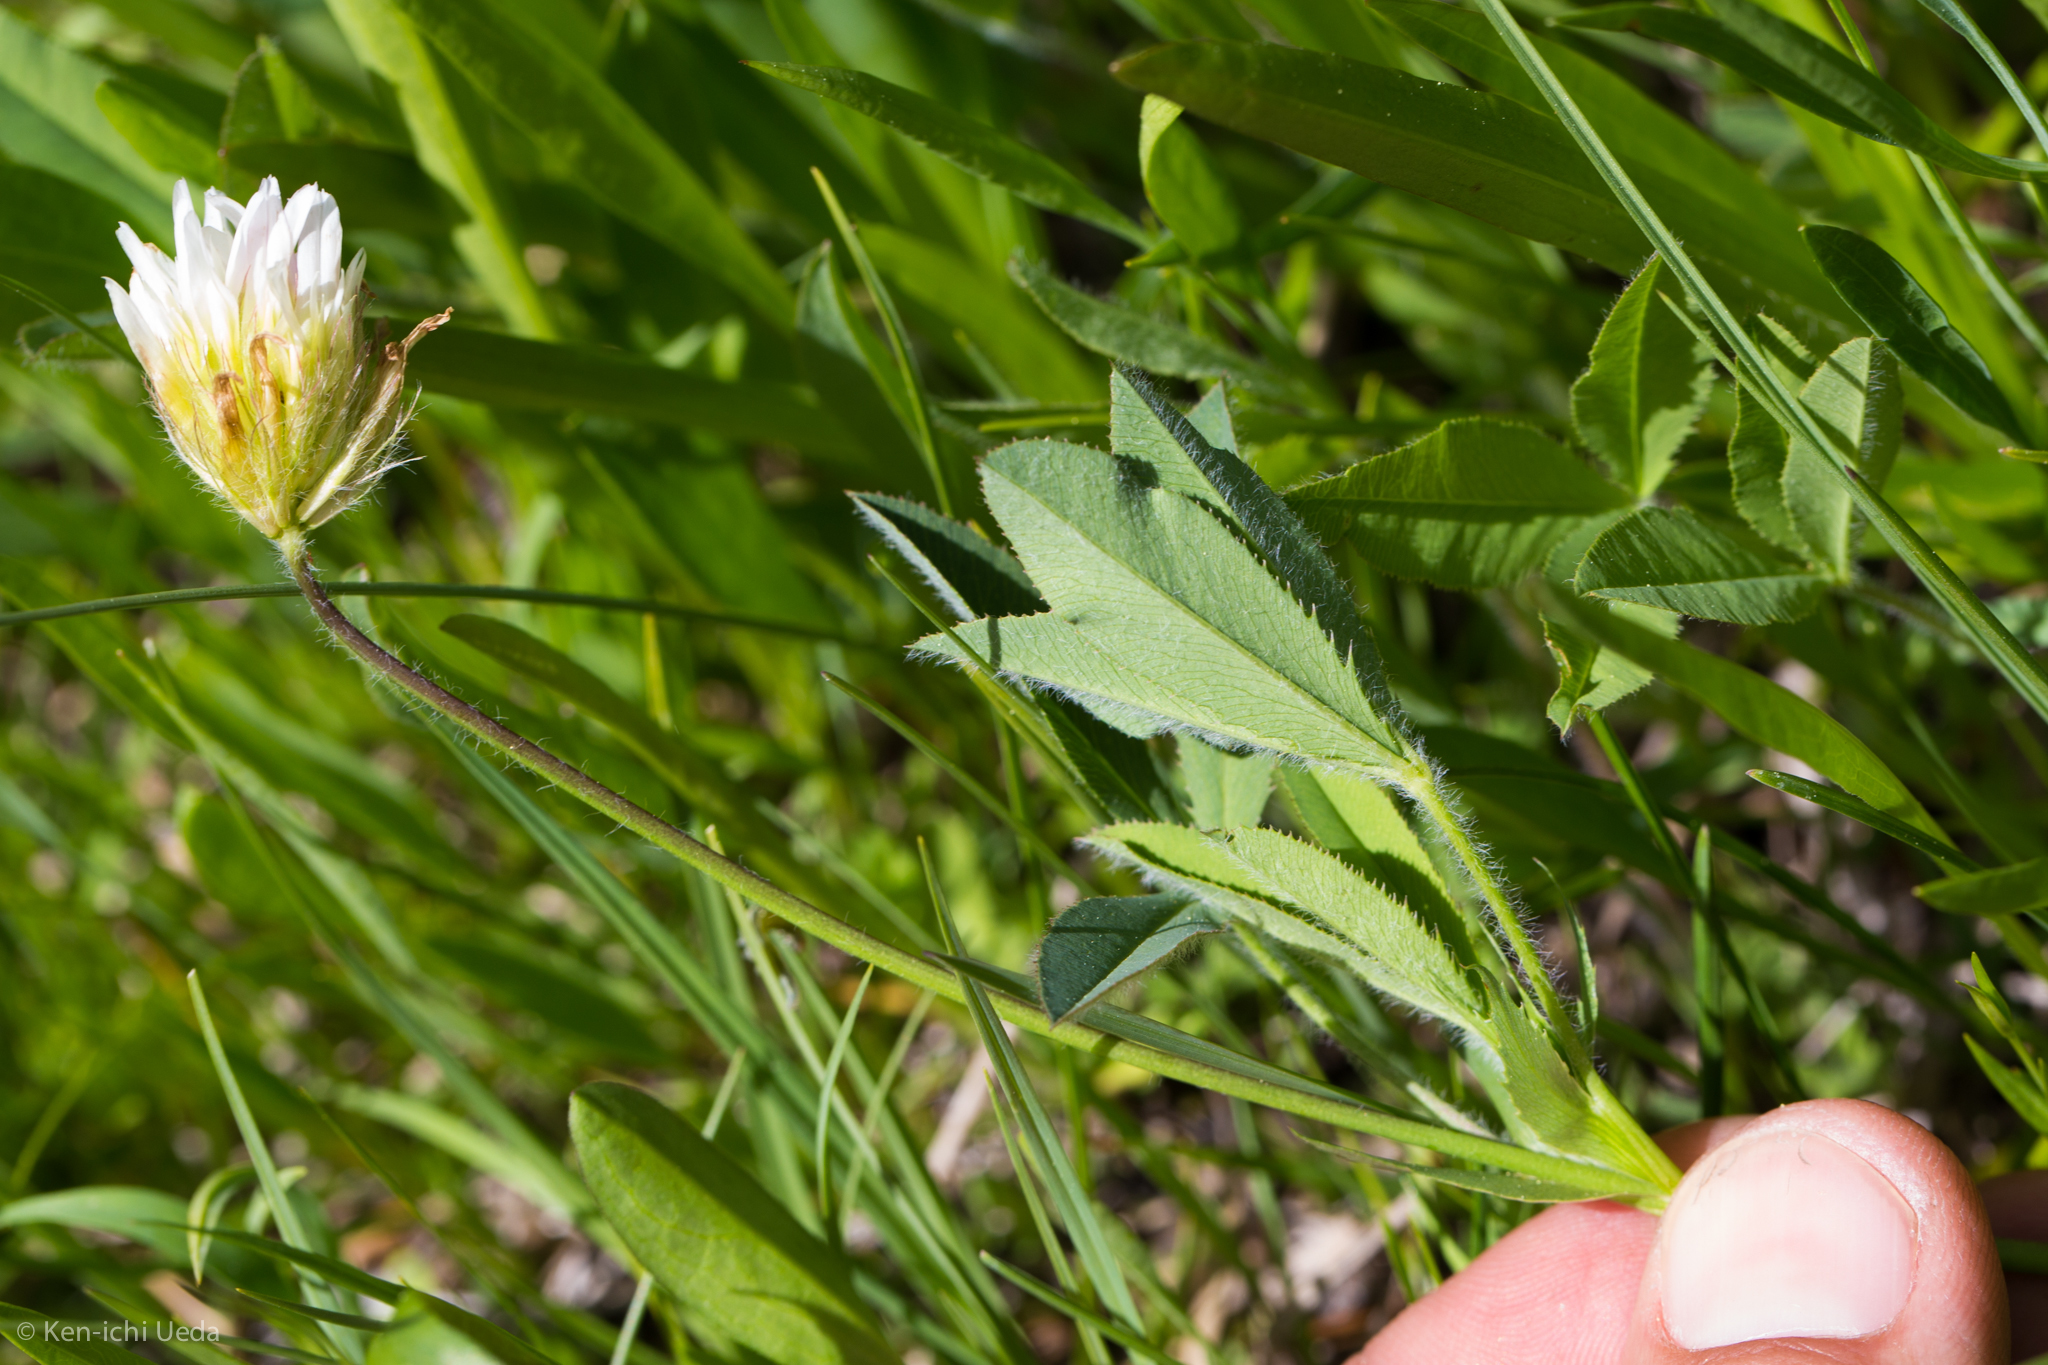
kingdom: Plantae
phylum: Tracheophyta
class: Magnoliopsida
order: Fabales
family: Fabaceae
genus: Trifolium
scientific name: Trifolium longipes
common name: Long-stalk clover
